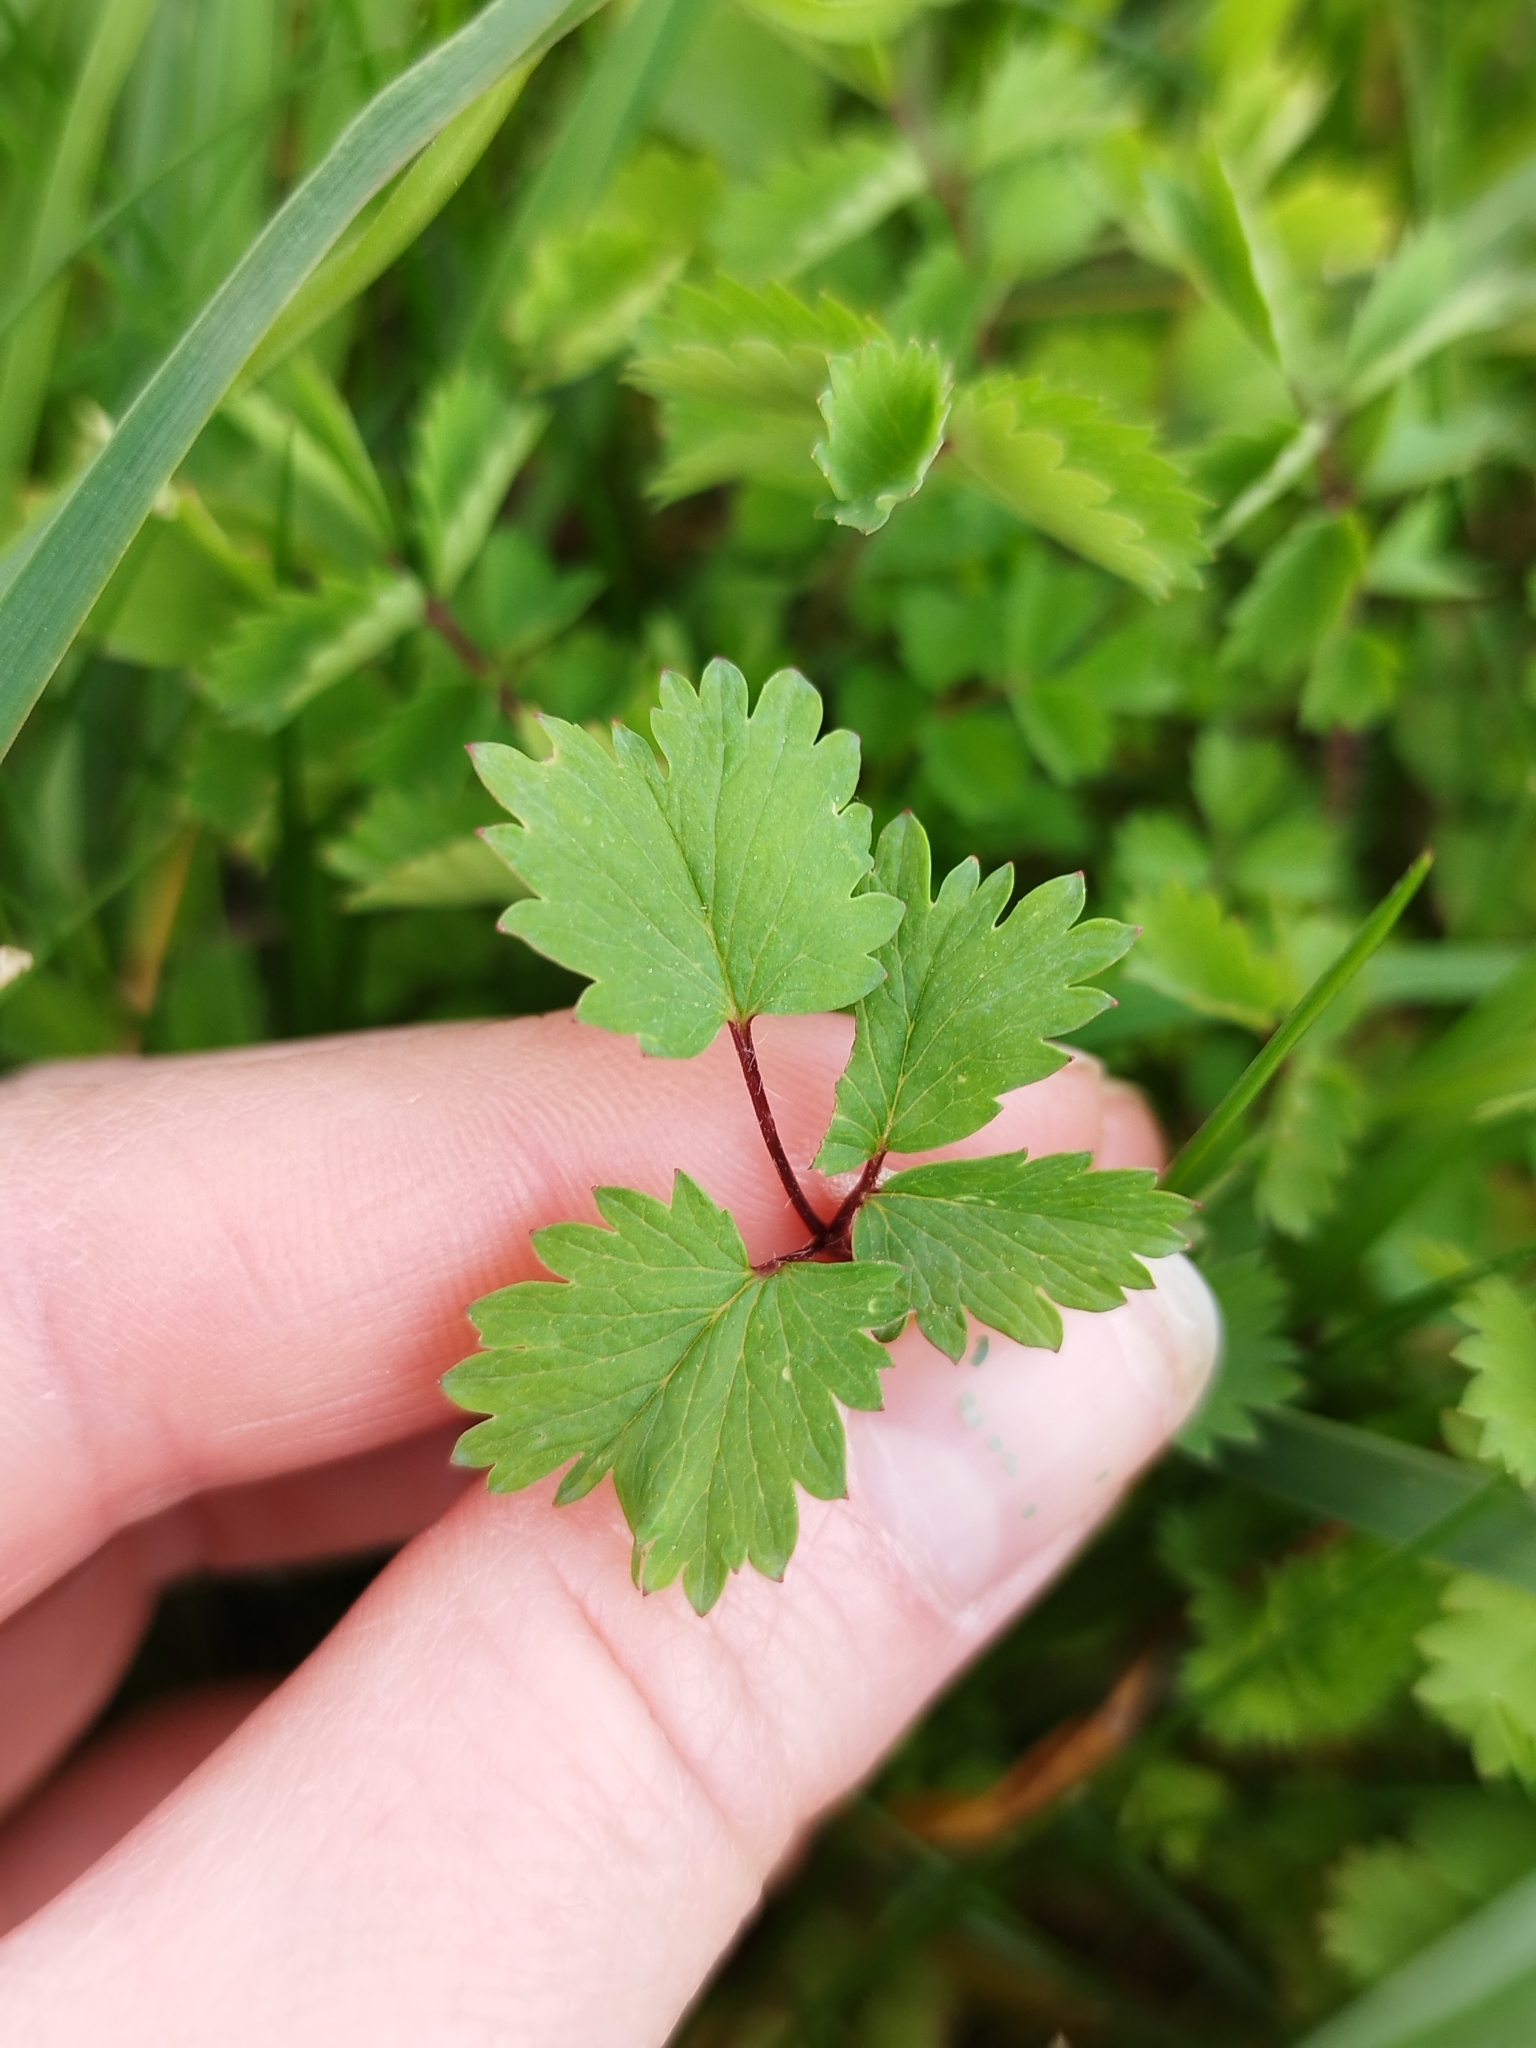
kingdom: Plantae
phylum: Tracheophyta
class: Magnoliopsida
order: Rosales
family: Rosaceae
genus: Poterium
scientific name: Poterium sanguisorba
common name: Salad burnet
